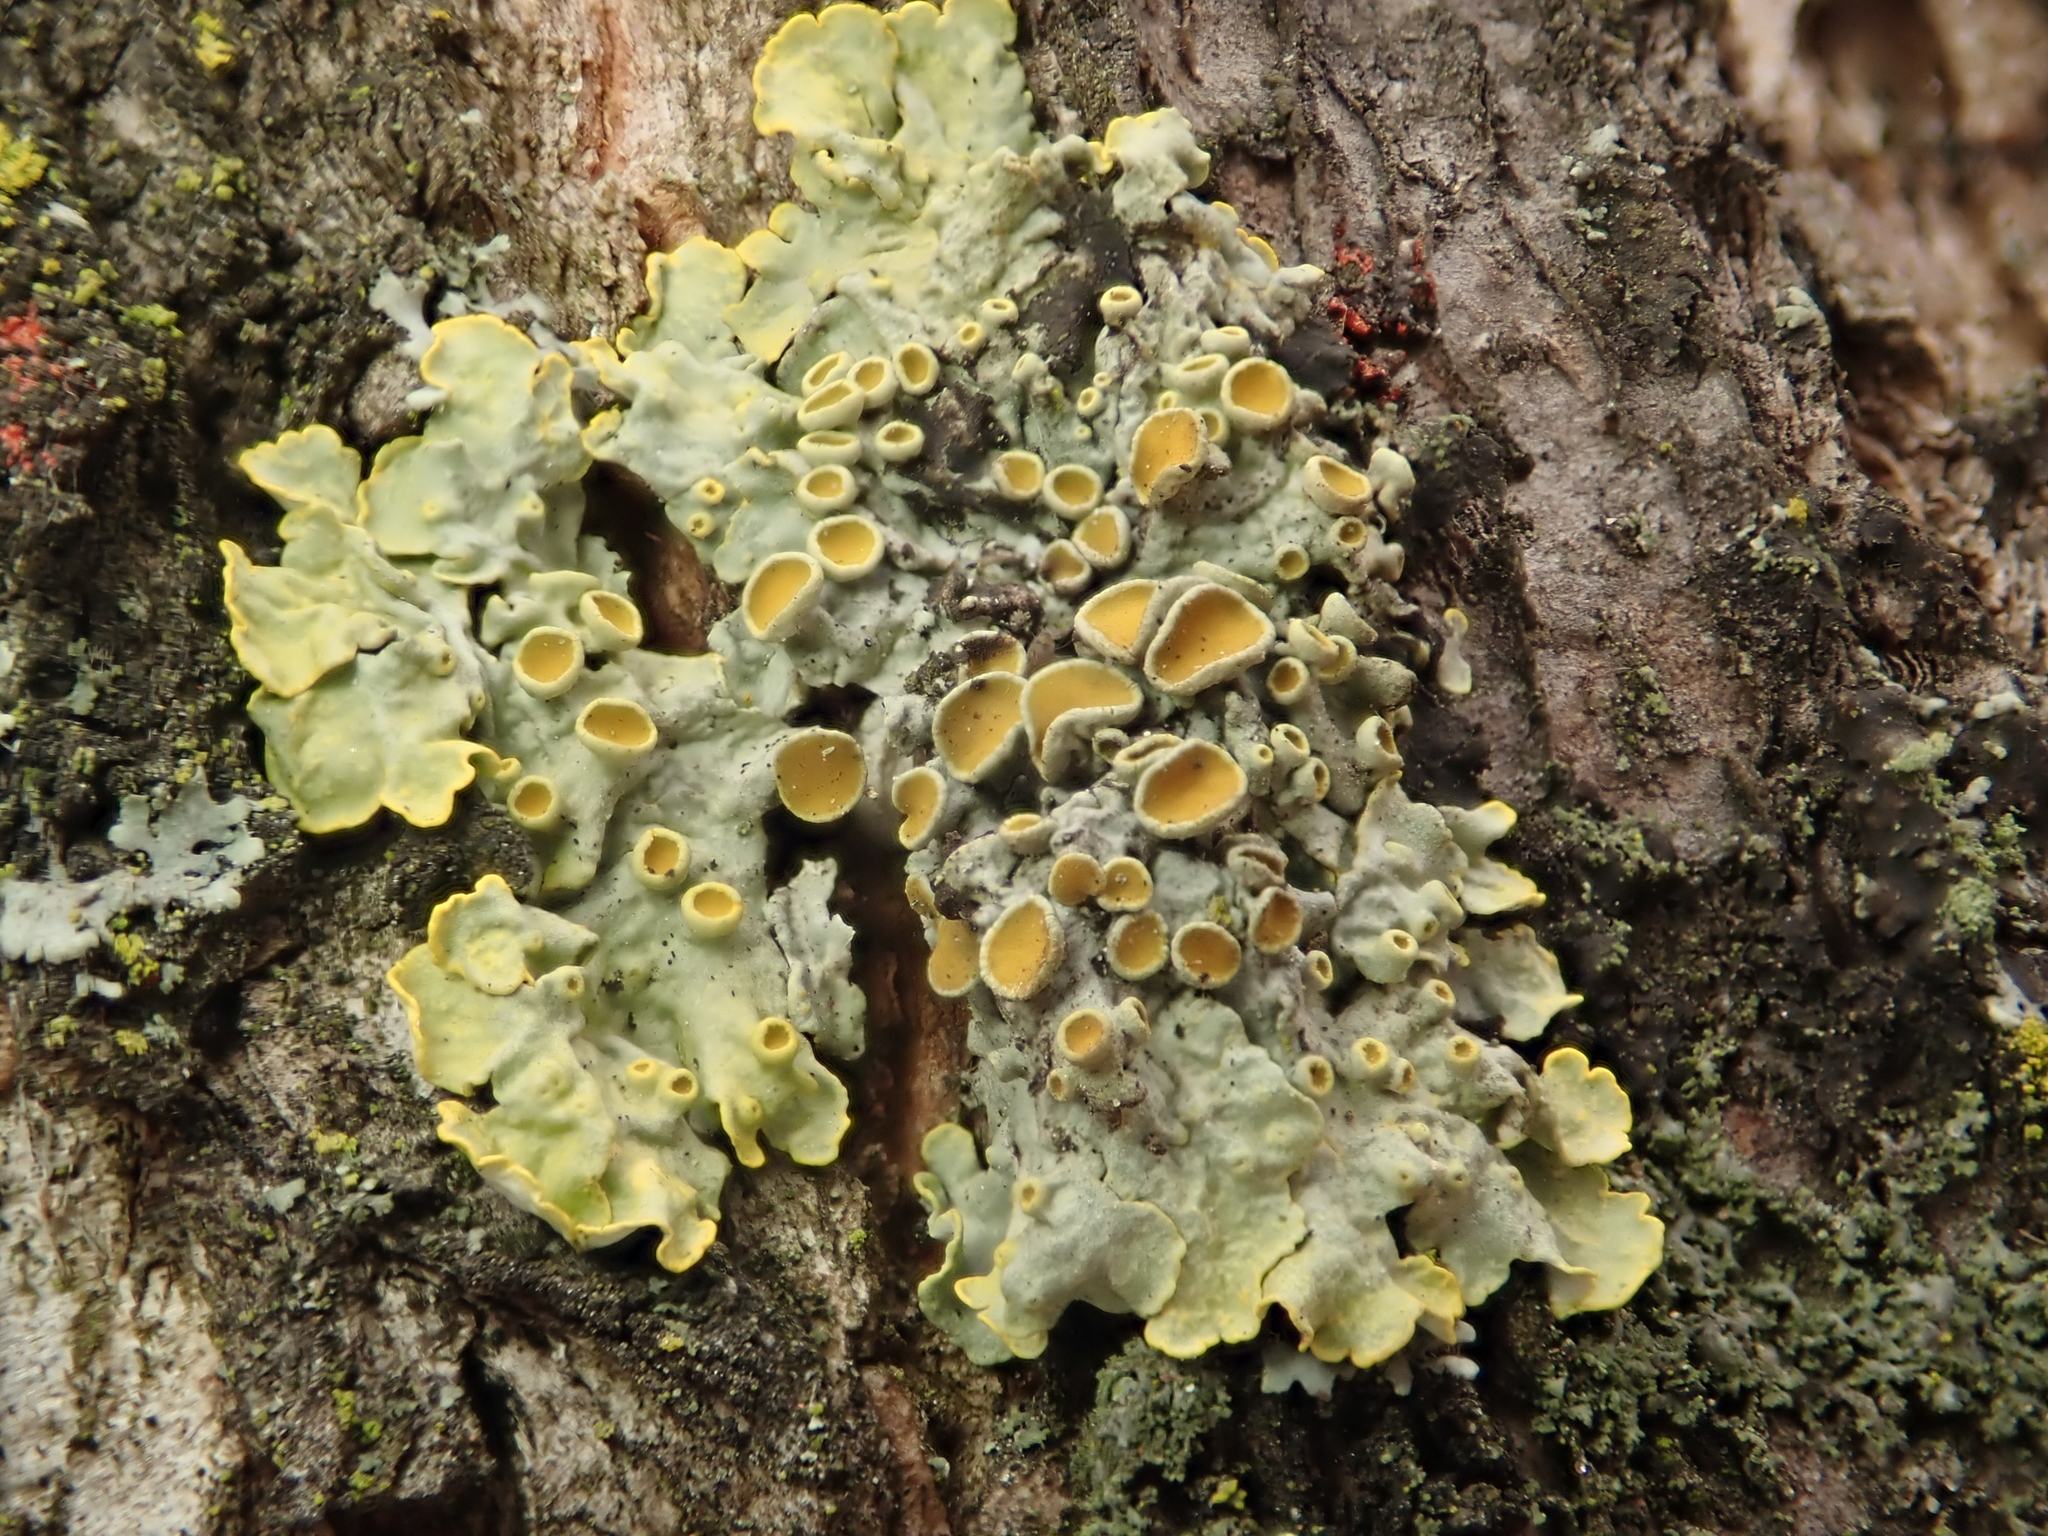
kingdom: Fungi
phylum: Ascomycota
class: Lecanoromycetes
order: Teloschistales
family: Teloschistaceae
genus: Xanthoria
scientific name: Xanthoria parietina
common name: Common orange lichen
